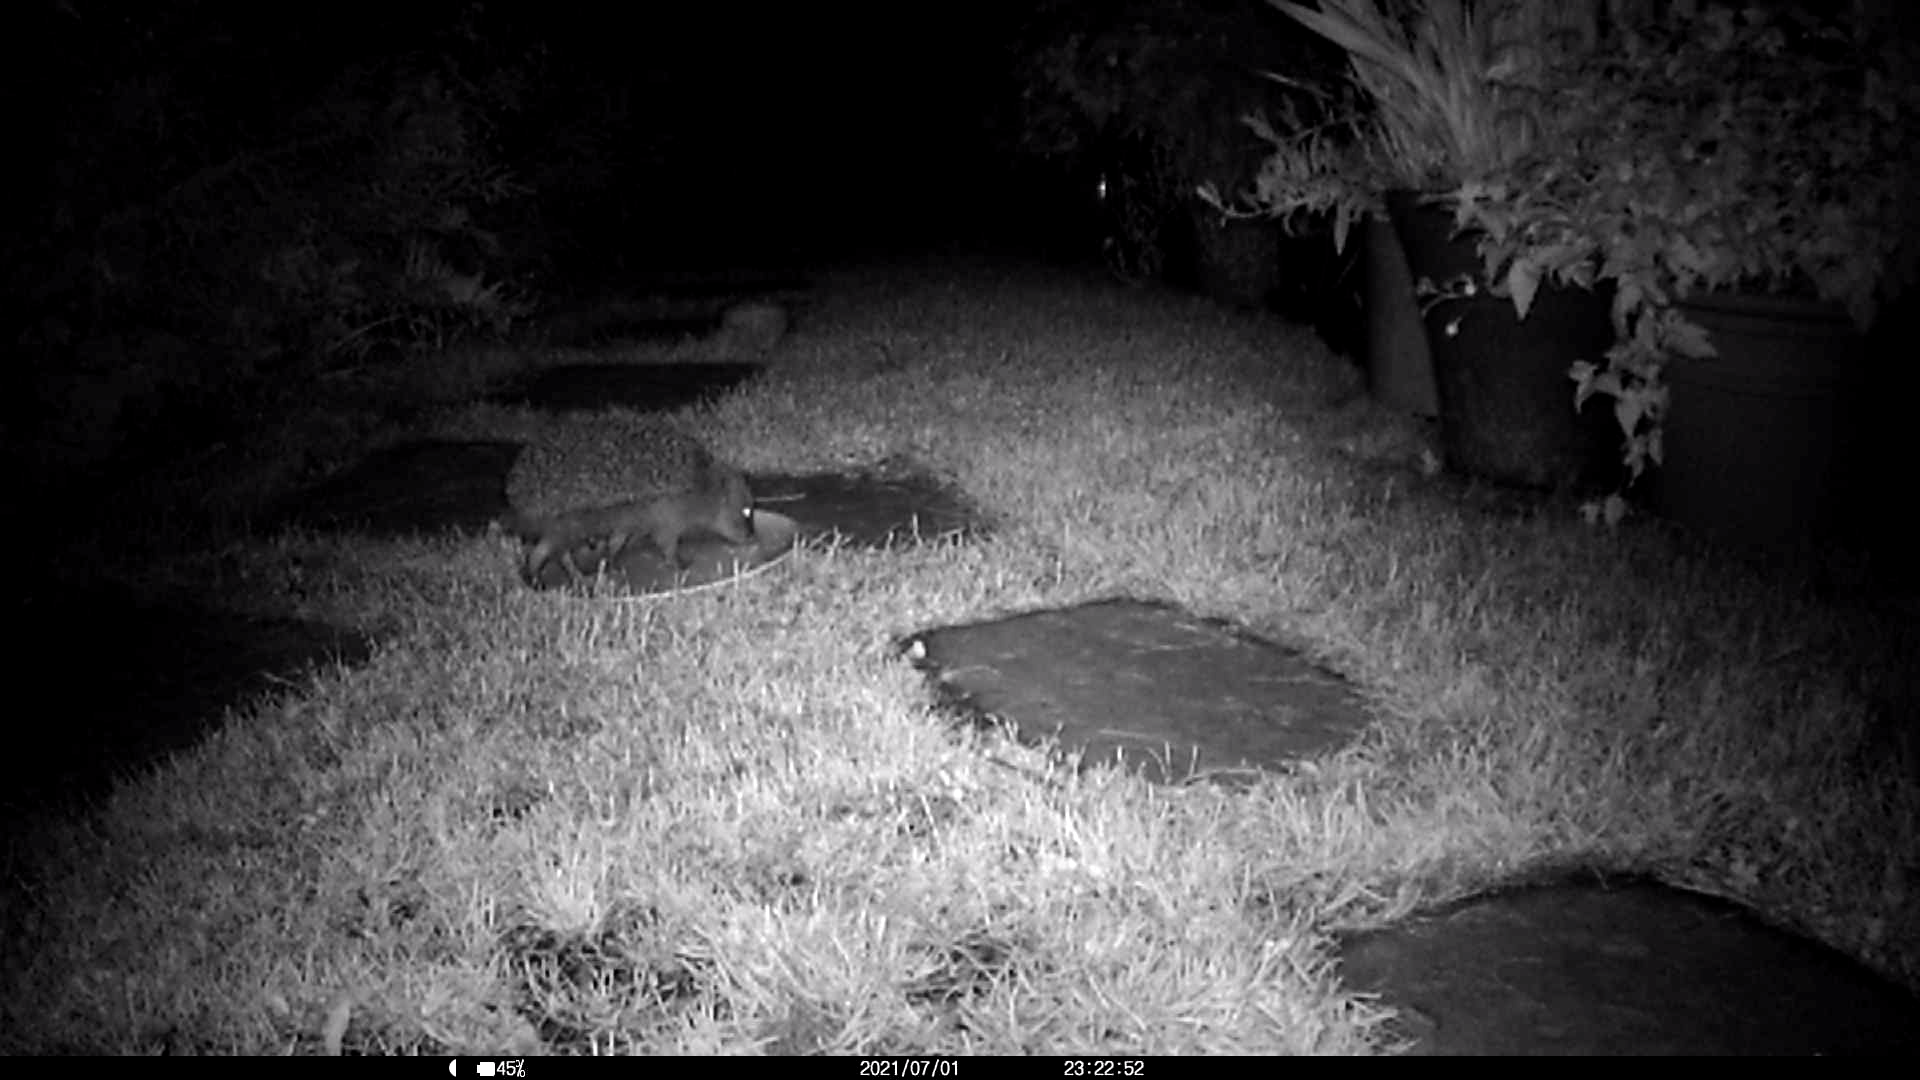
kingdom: Animalia
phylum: Chordata
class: Mammalia
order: Erinaceomorpha
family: Erinaceidae
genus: Erinaceus
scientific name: Erinaceus europaeus
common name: West european hedgehog
